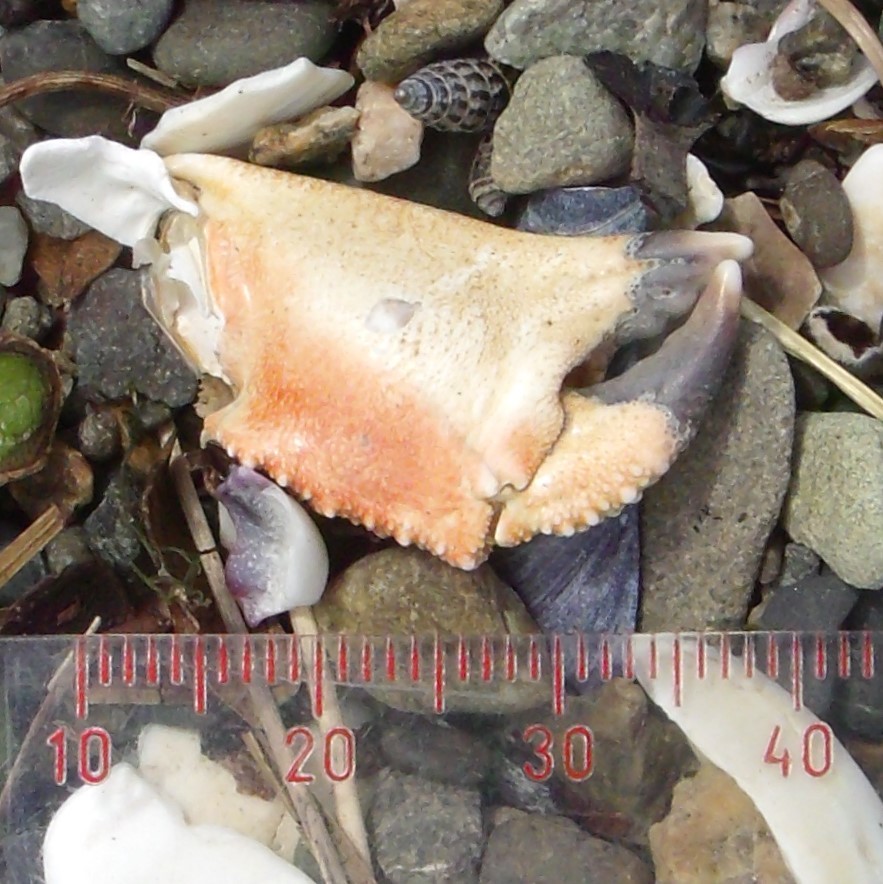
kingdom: Animalia
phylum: Arthropoda
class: Malacostraca
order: Decapoda
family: Cancridae
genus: Metacarcinus
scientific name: Metacarcinus novaezelandiae
